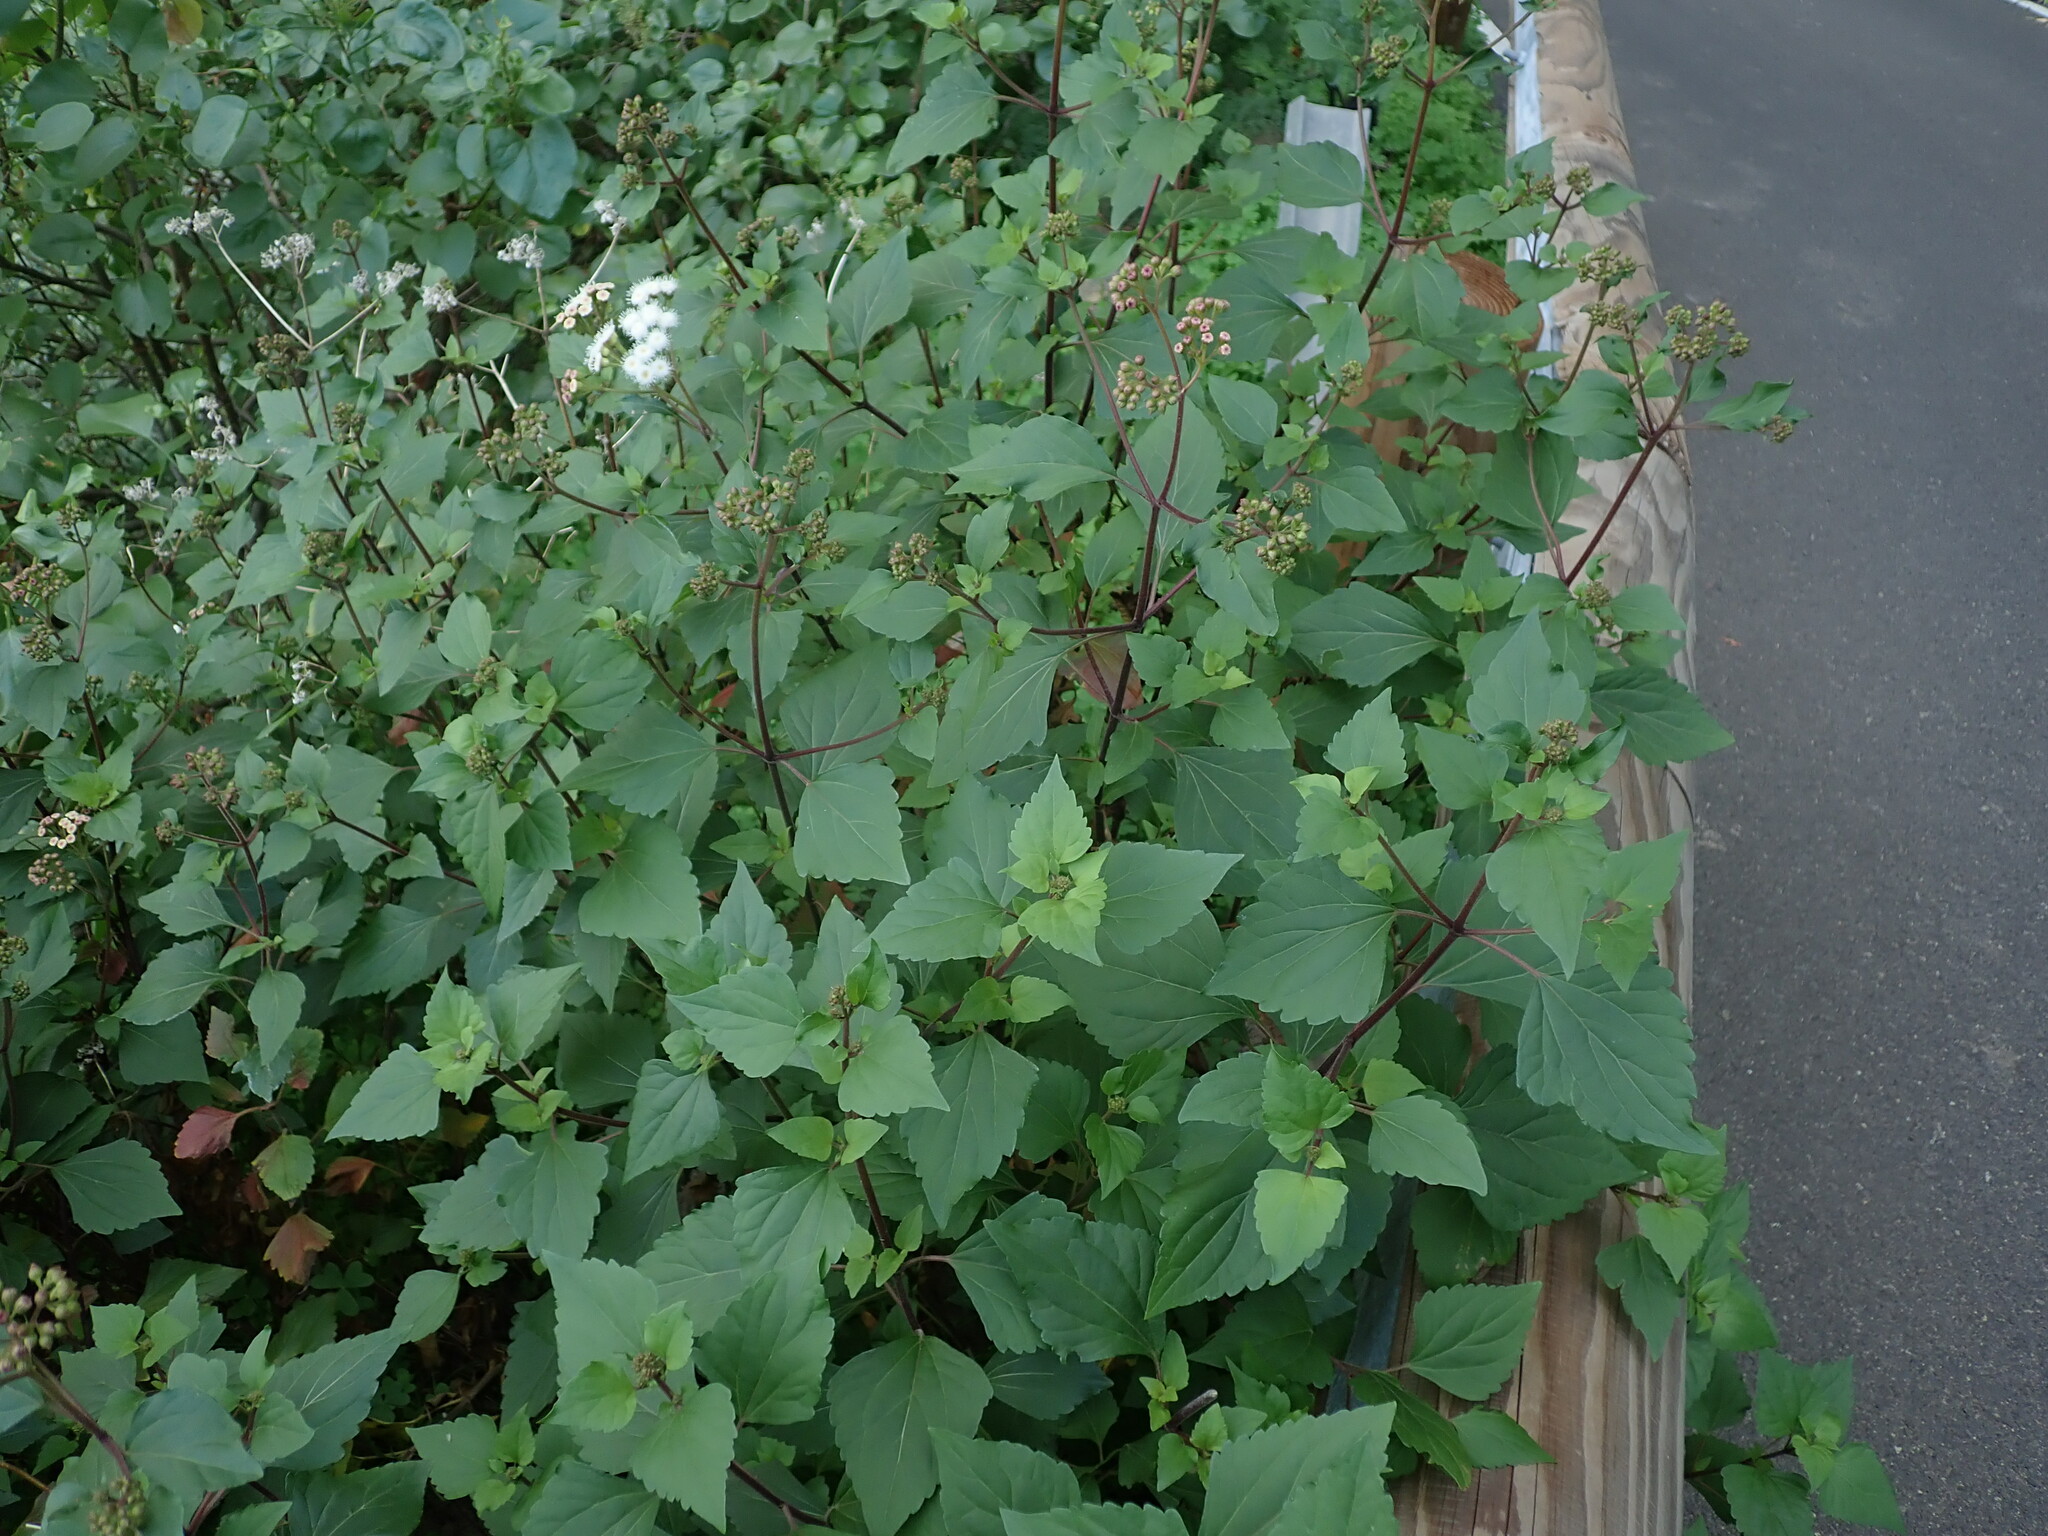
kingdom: Plantae
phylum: Tracheophyta
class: Magnoliopsida
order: Asterales
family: Asteraceae
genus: Ageratina
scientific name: Ageratina adenophora
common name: Sticky snakeroot
